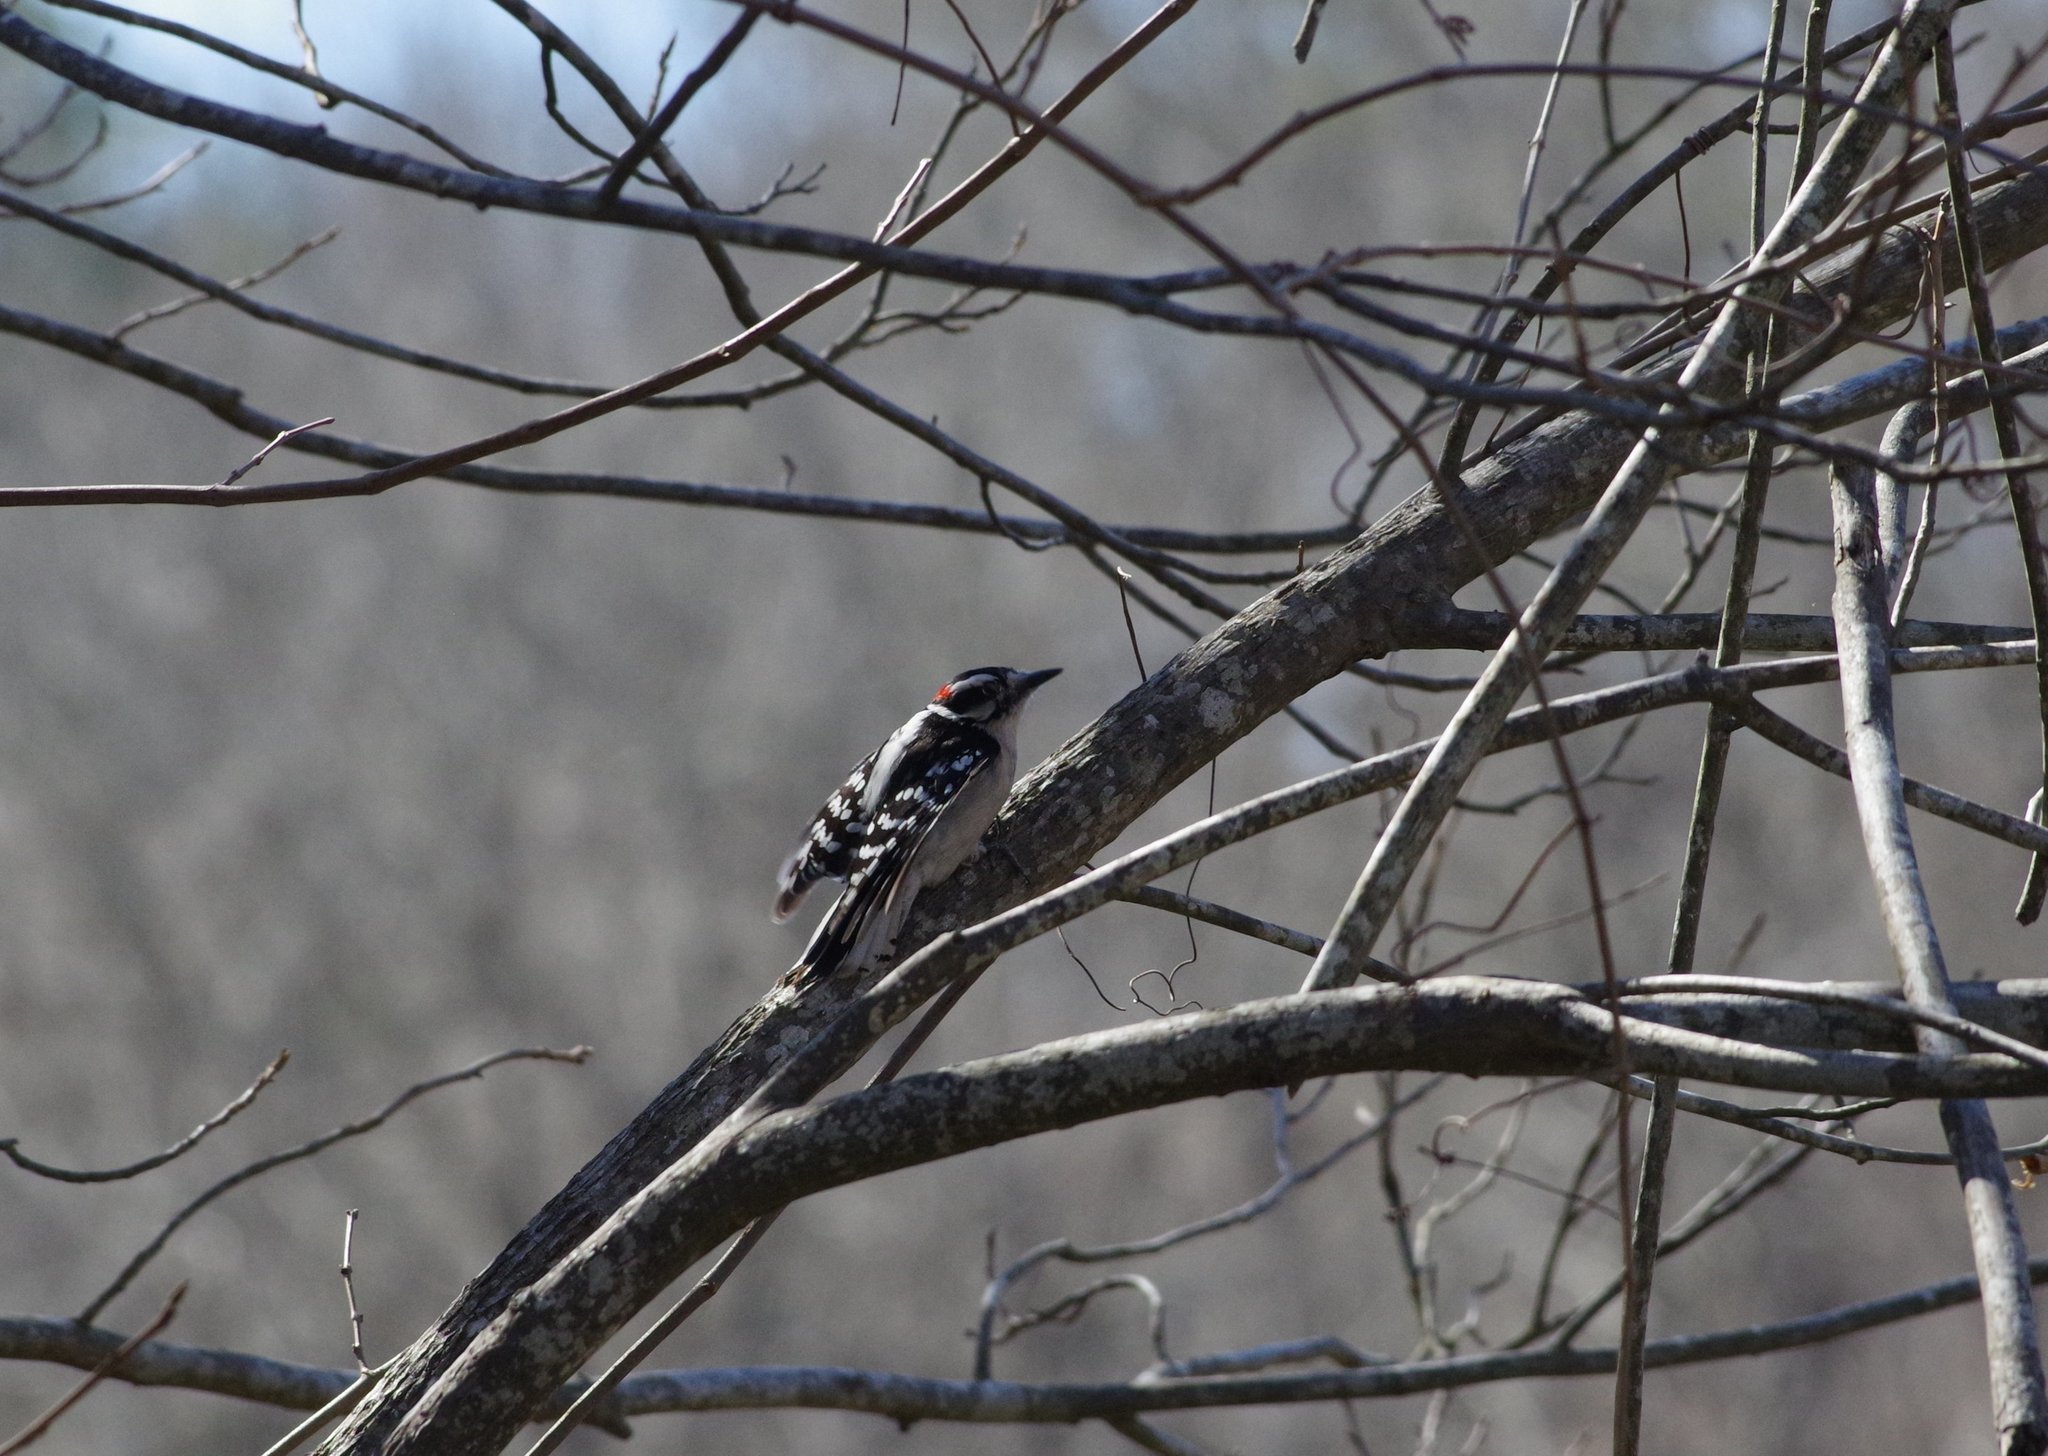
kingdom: Animalia
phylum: Chordata
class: Aves
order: Piciformes
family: Picidae
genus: Dryobates
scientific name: Dryobates pubescens
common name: Downy woodpecker
